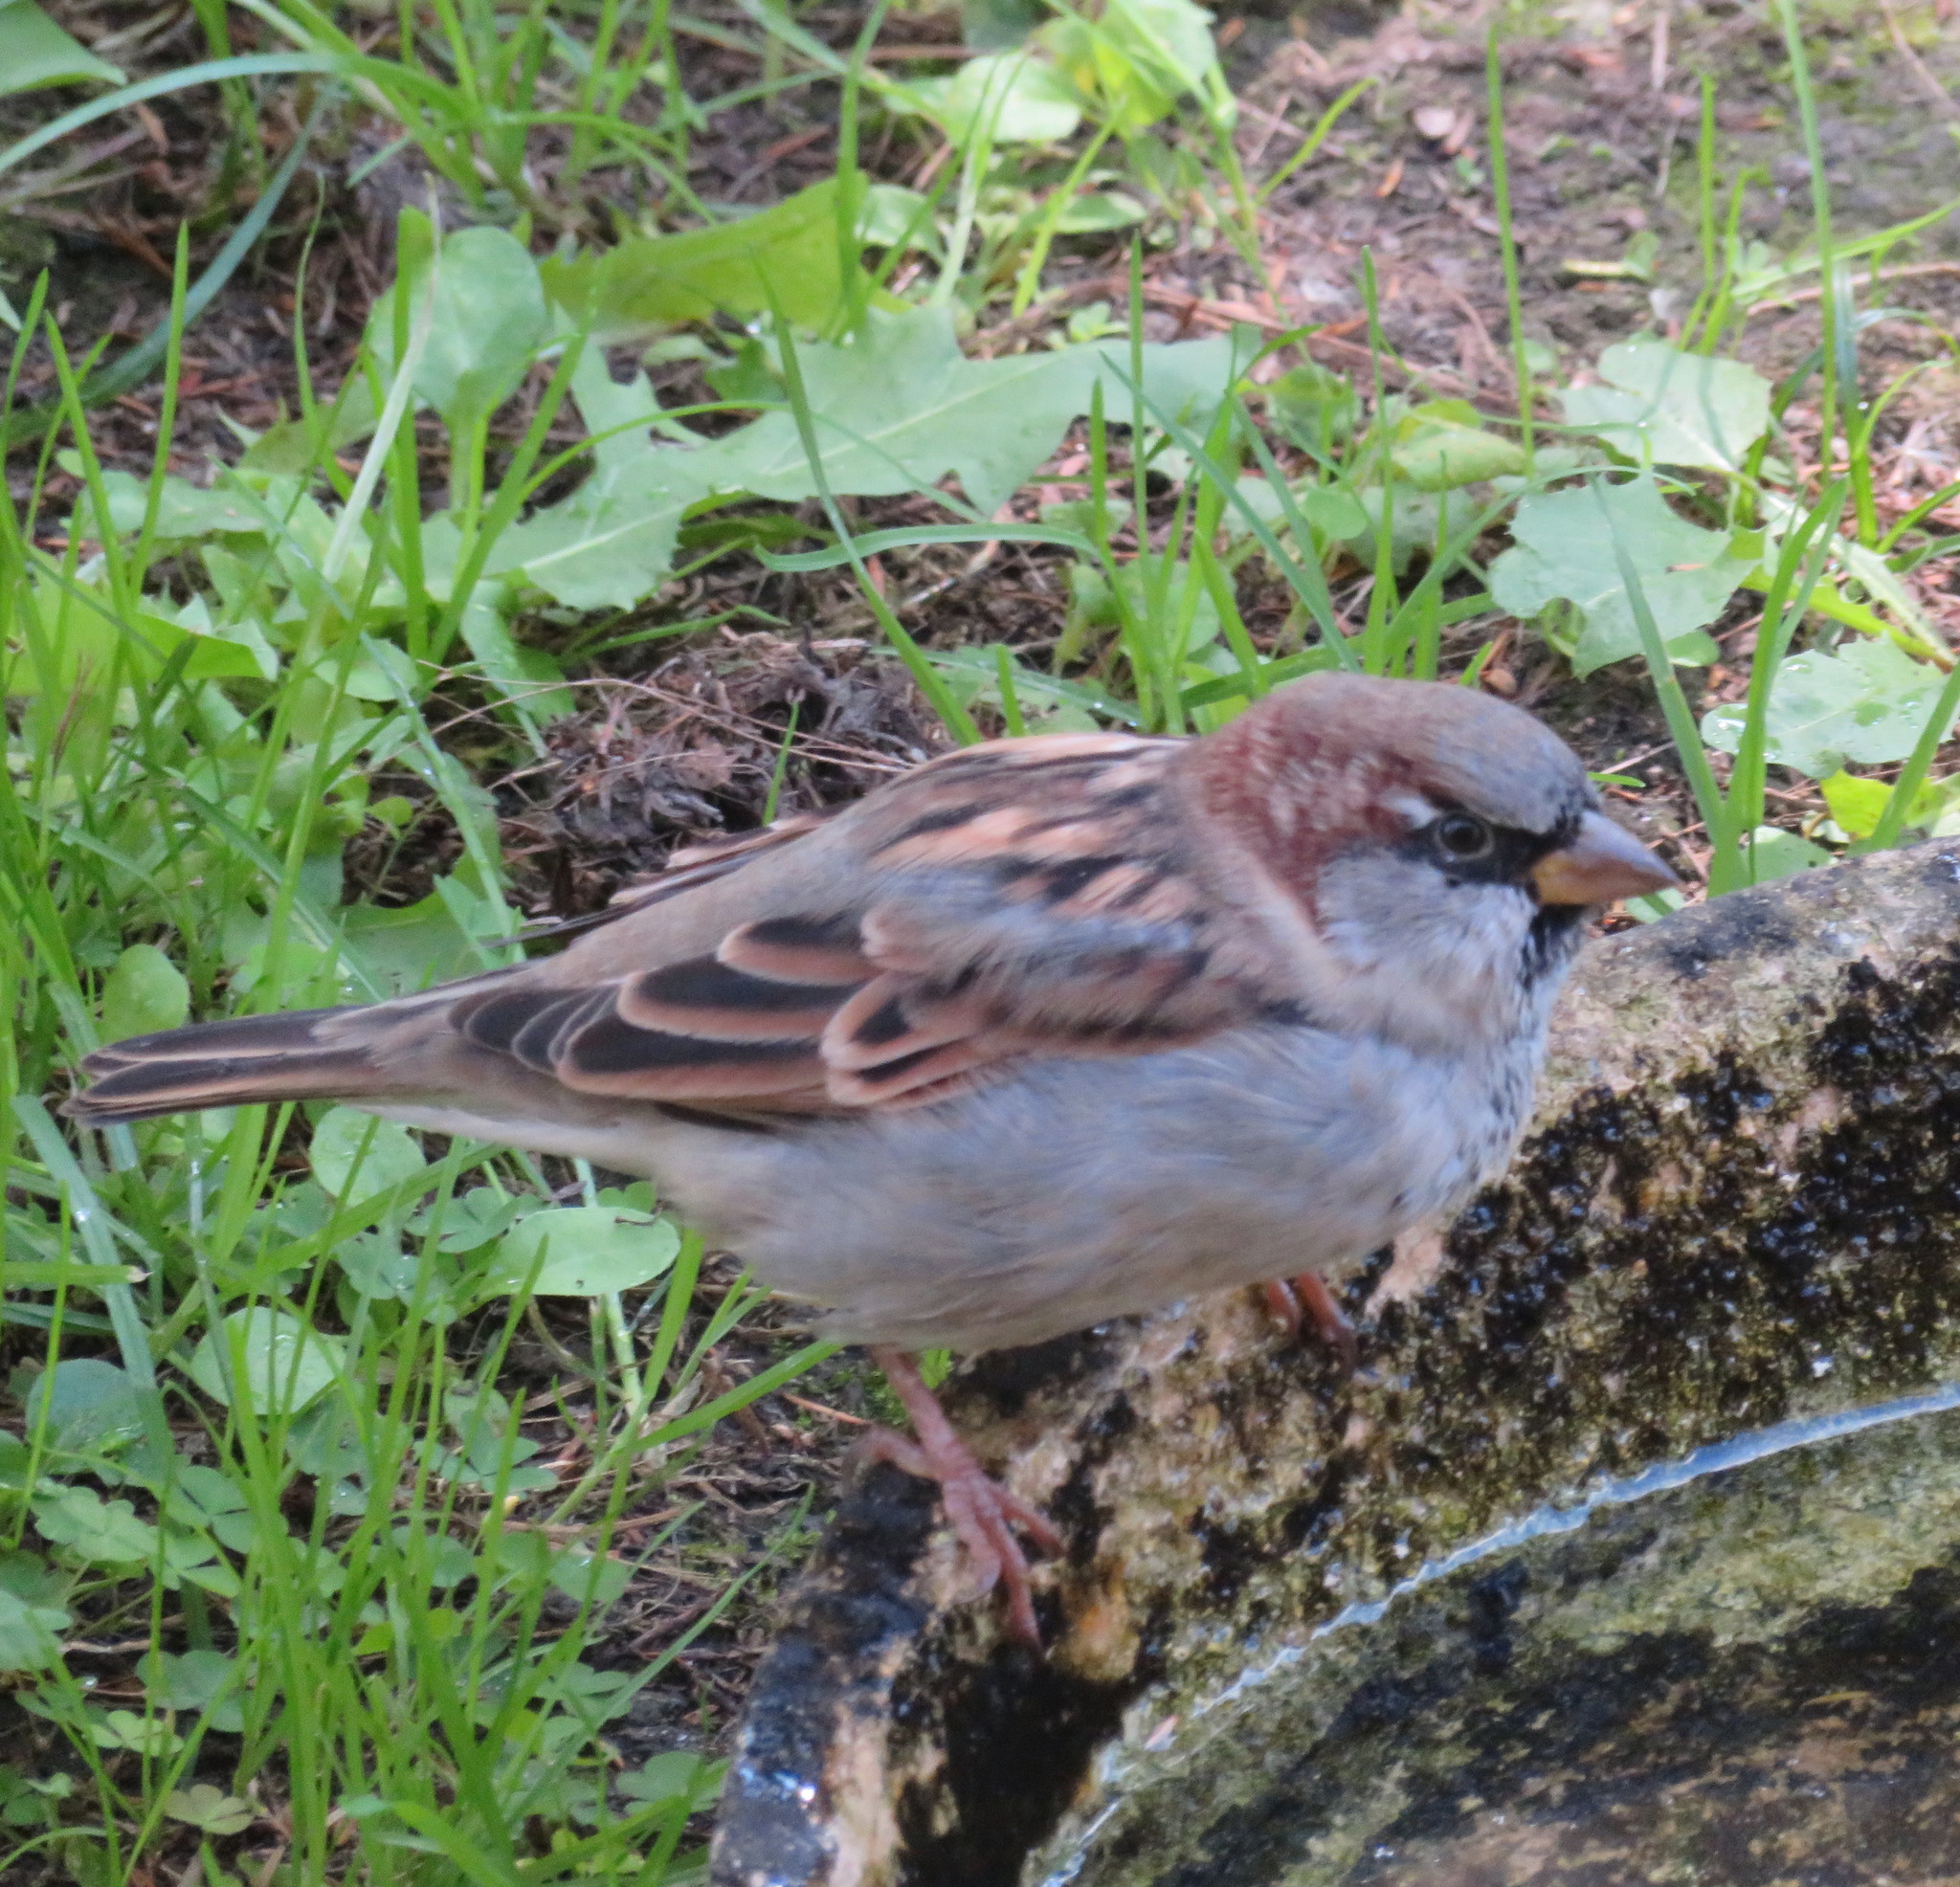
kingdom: Animalia
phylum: Chordata
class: Aves
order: Passeriformes
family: Passeridae
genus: Passer
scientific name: Passer domesticus
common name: House sparrow
